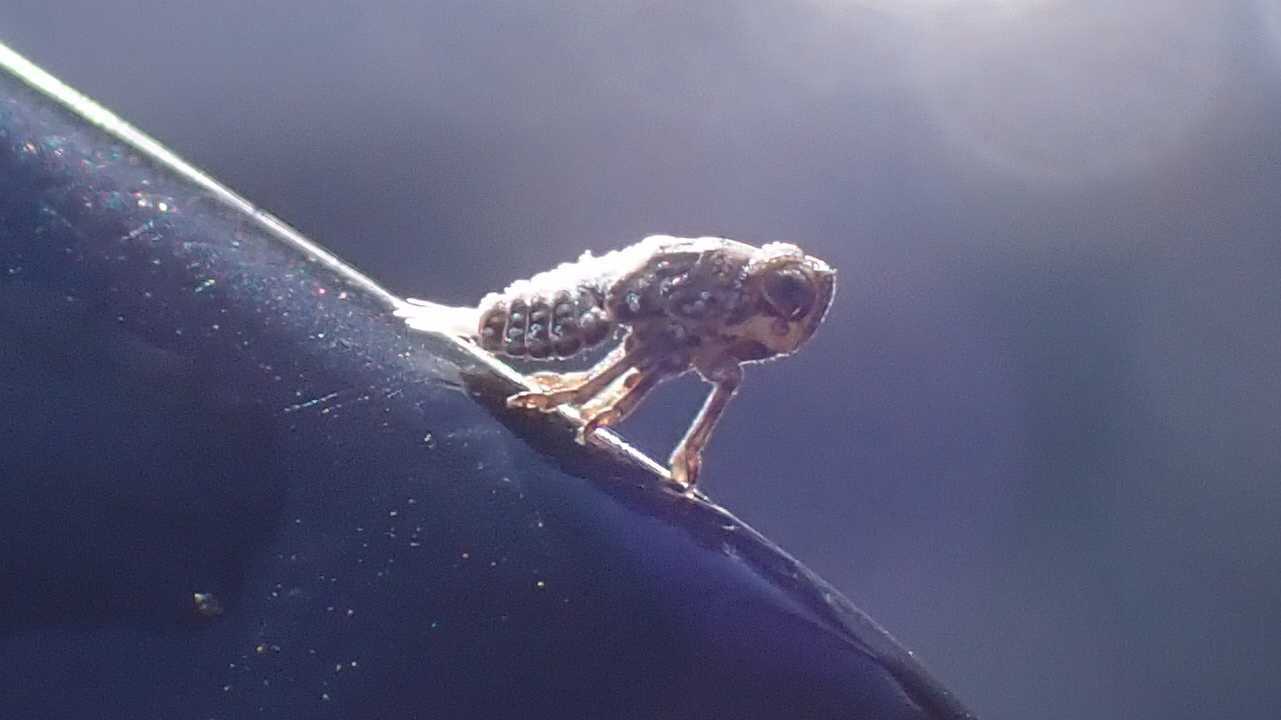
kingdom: Animalia
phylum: Arthropoda
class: Insecta
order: Hemiptera
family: Issidae
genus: Issus
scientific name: Issus
